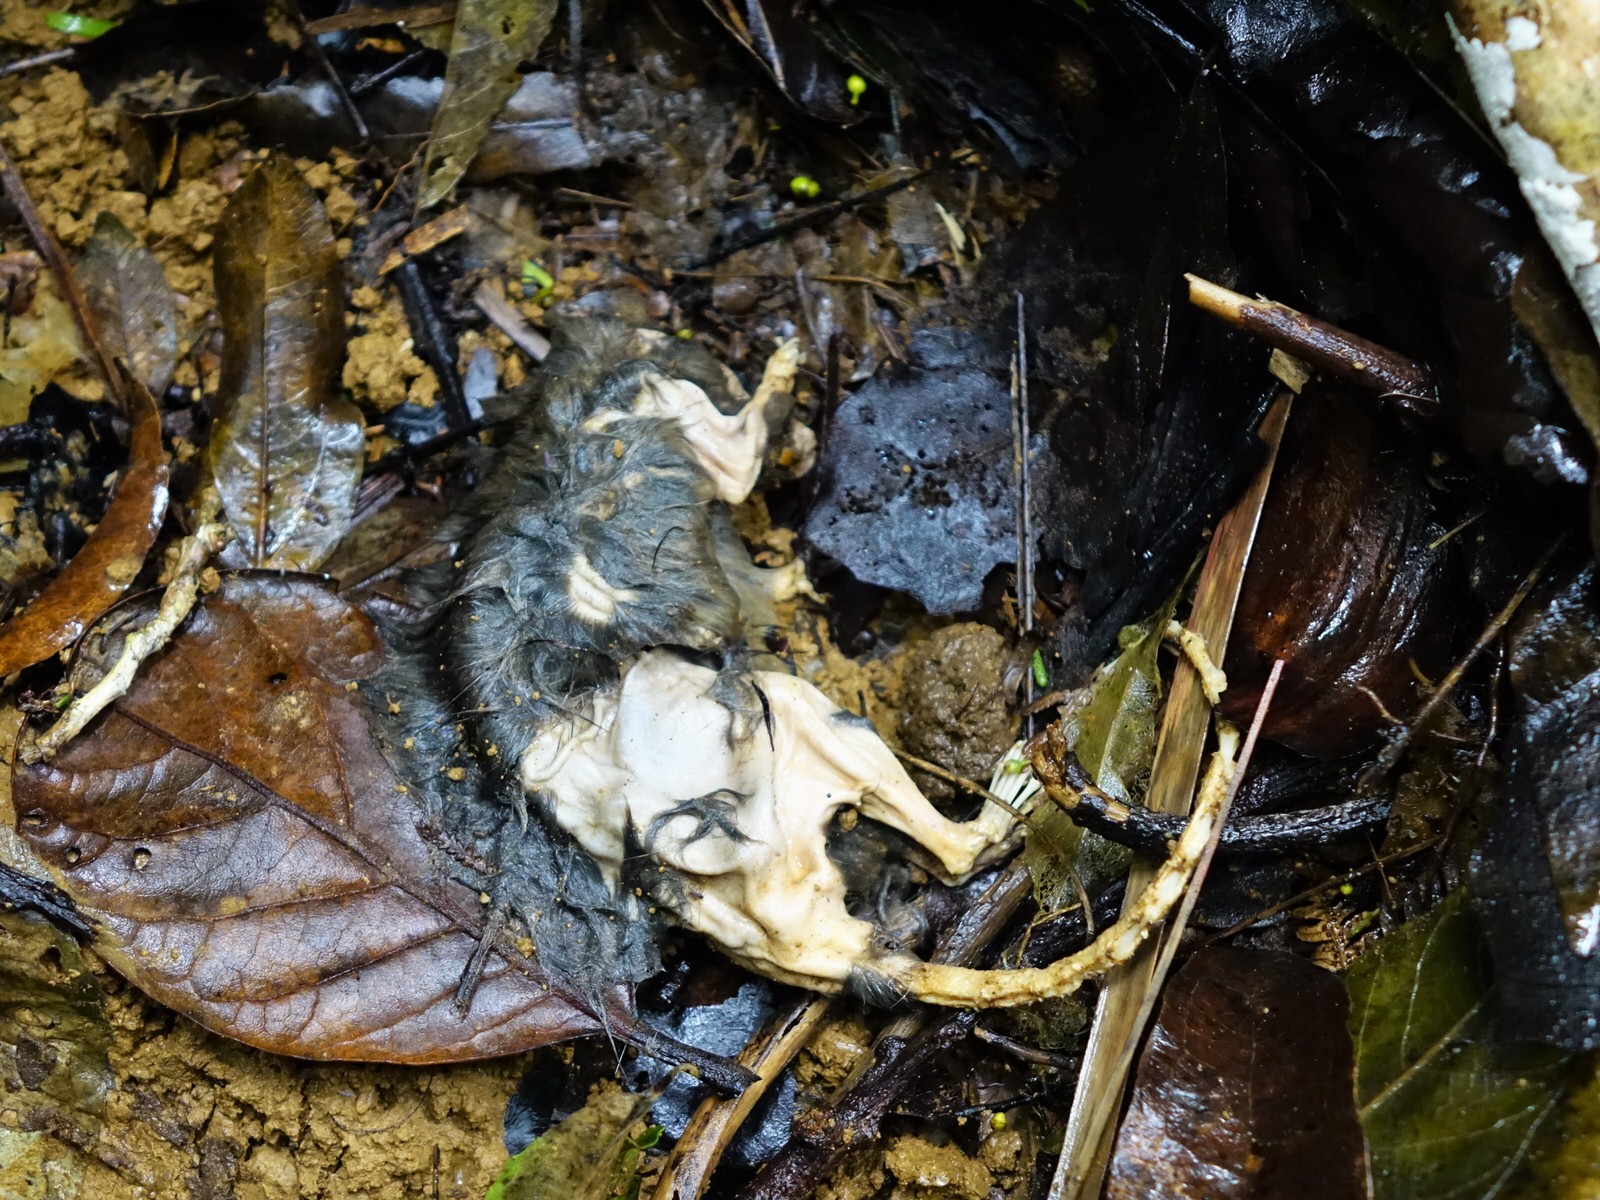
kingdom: Animalia
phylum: Chordata
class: Mammalia
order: Rodentia
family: Muridae
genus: Rattus
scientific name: Rattus
